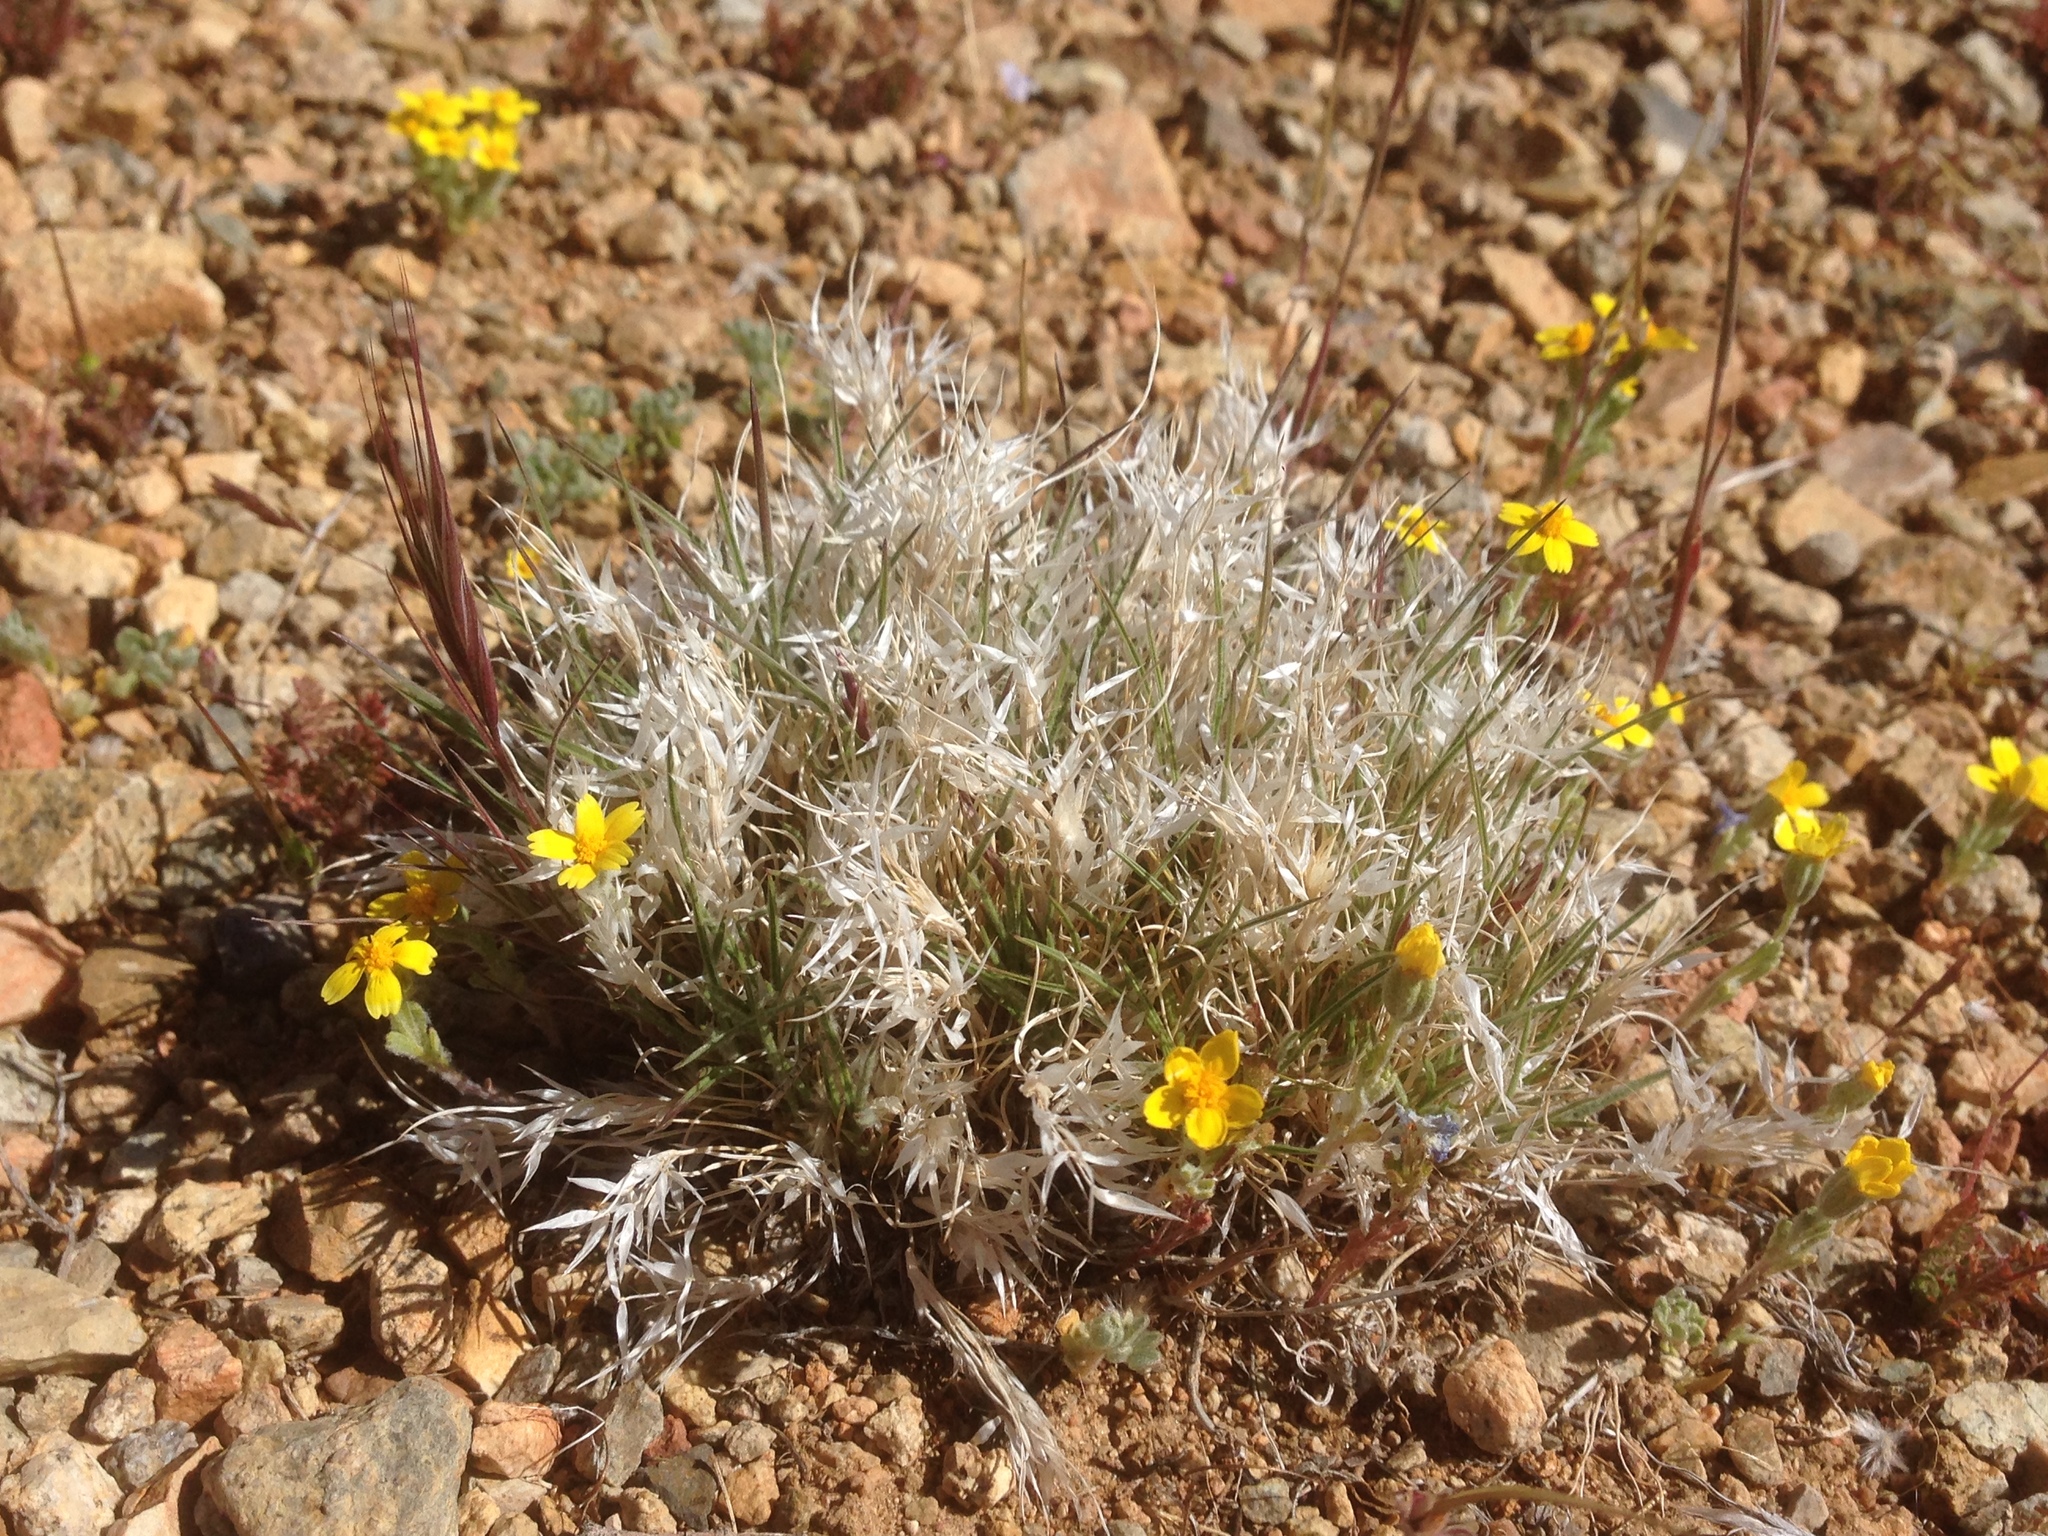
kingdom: Plantae
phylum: Tracheophyta
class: Liliopsida
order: Poales
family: Poaceae
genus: Dasyochloa
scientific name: Dasyochloa pulchella
